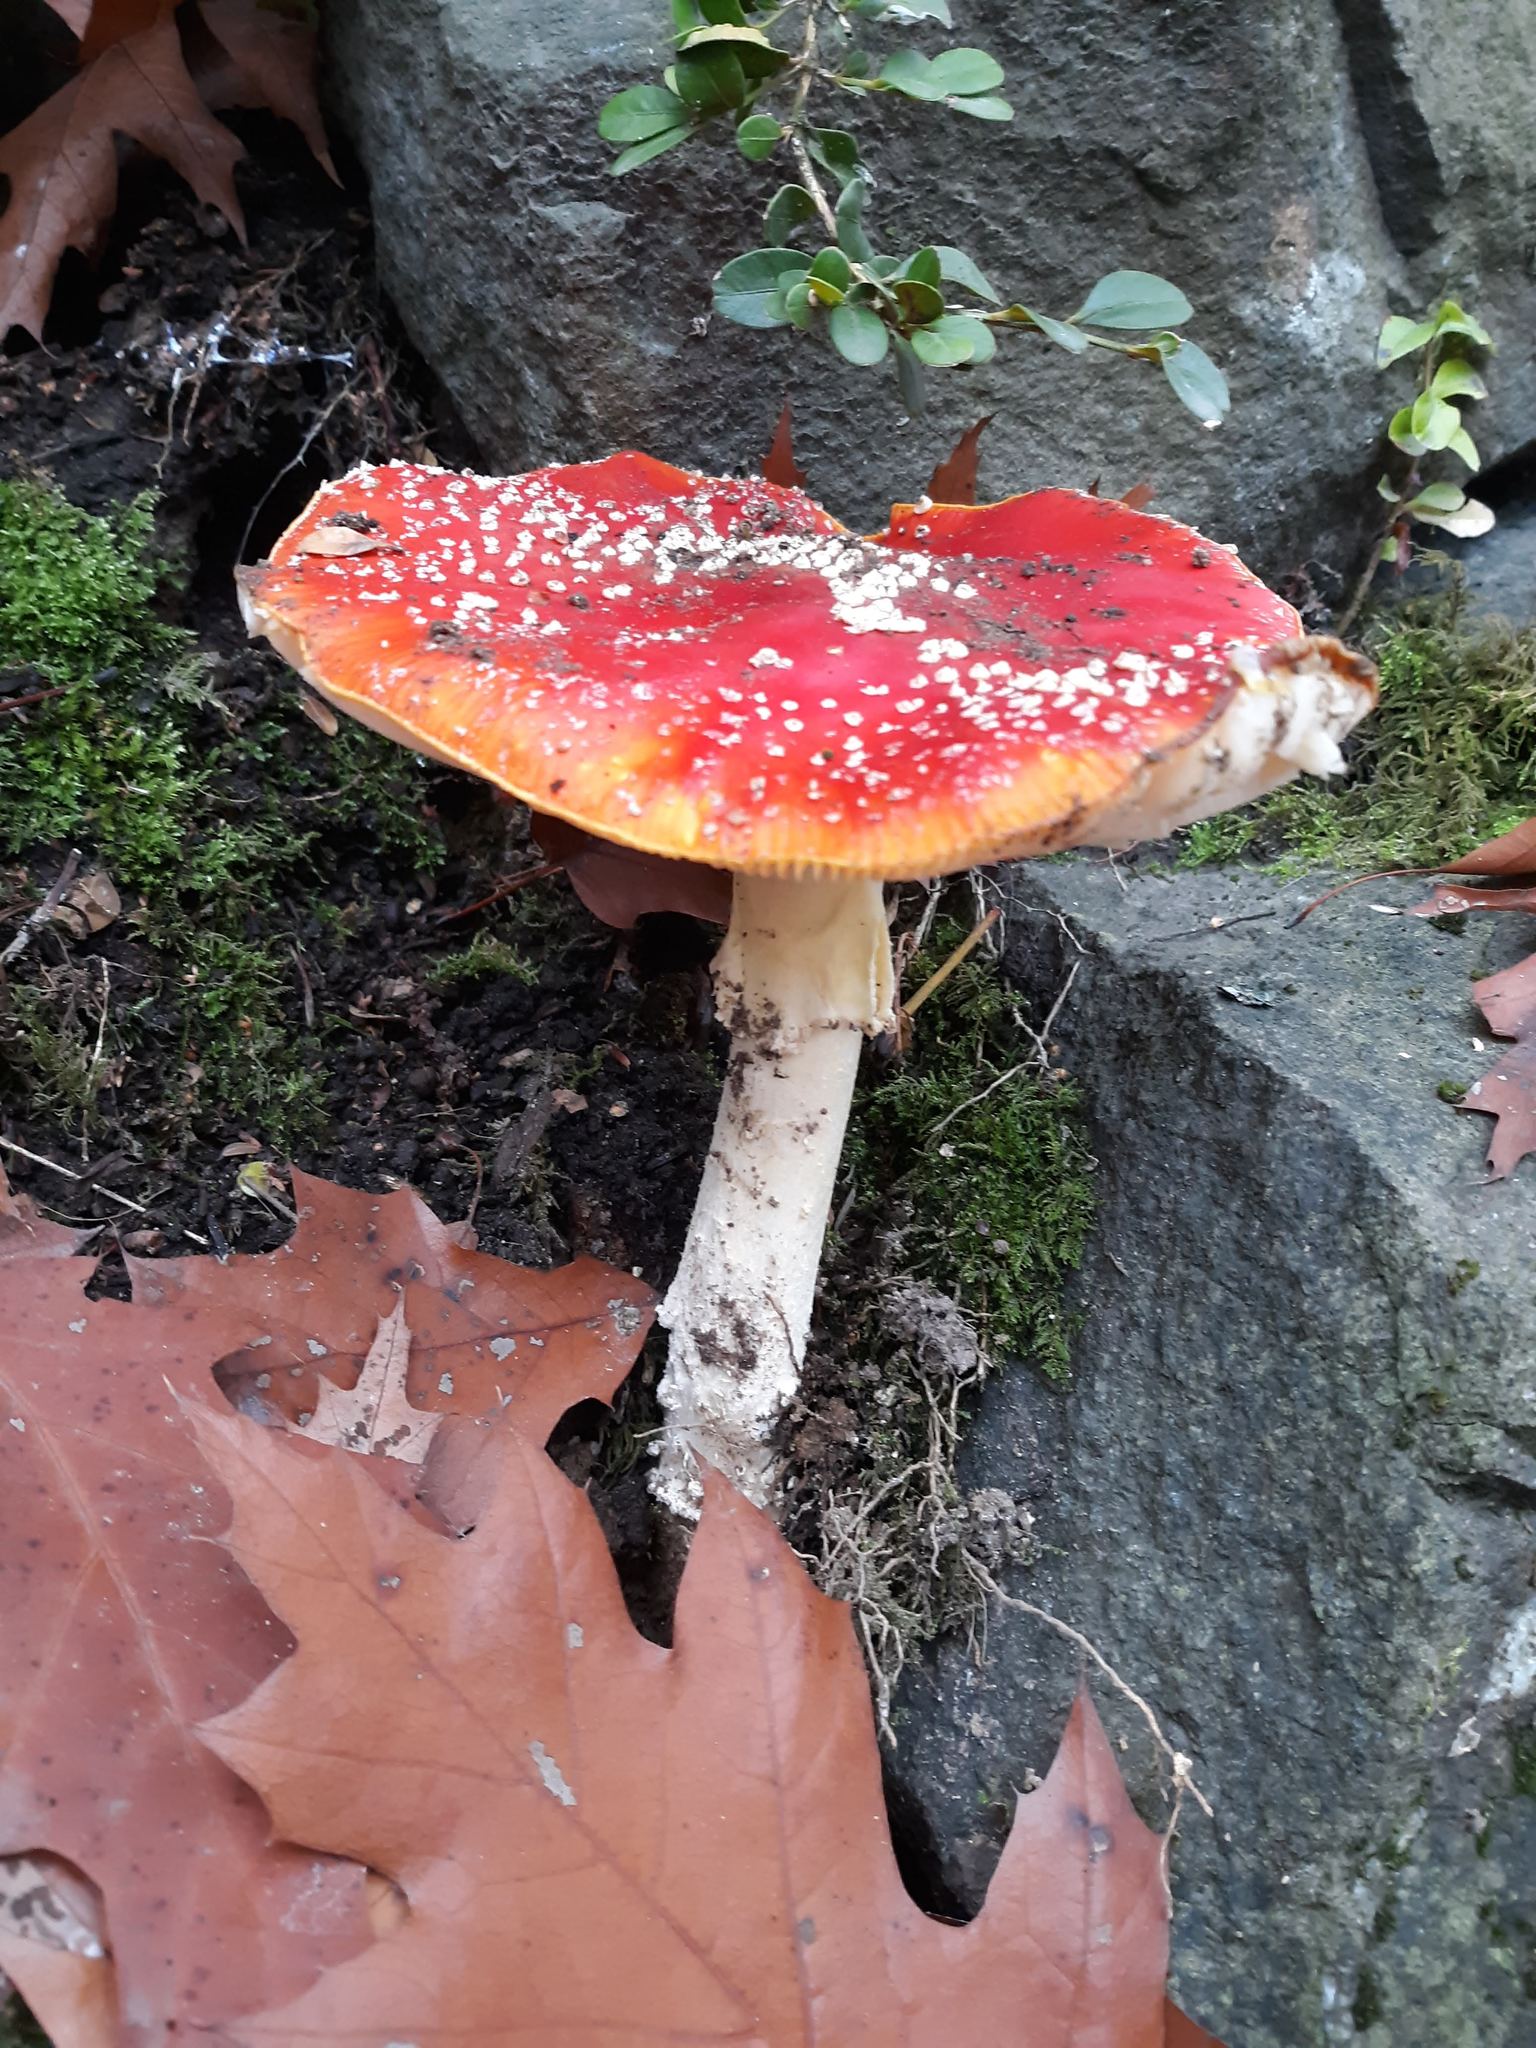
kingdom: Fungi
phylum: Basidiomycota
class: Agaricomycetes
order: Agaricales
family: Amanitaceae
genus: Amanita
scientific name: Amanita muscaria
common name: Fly agaric
